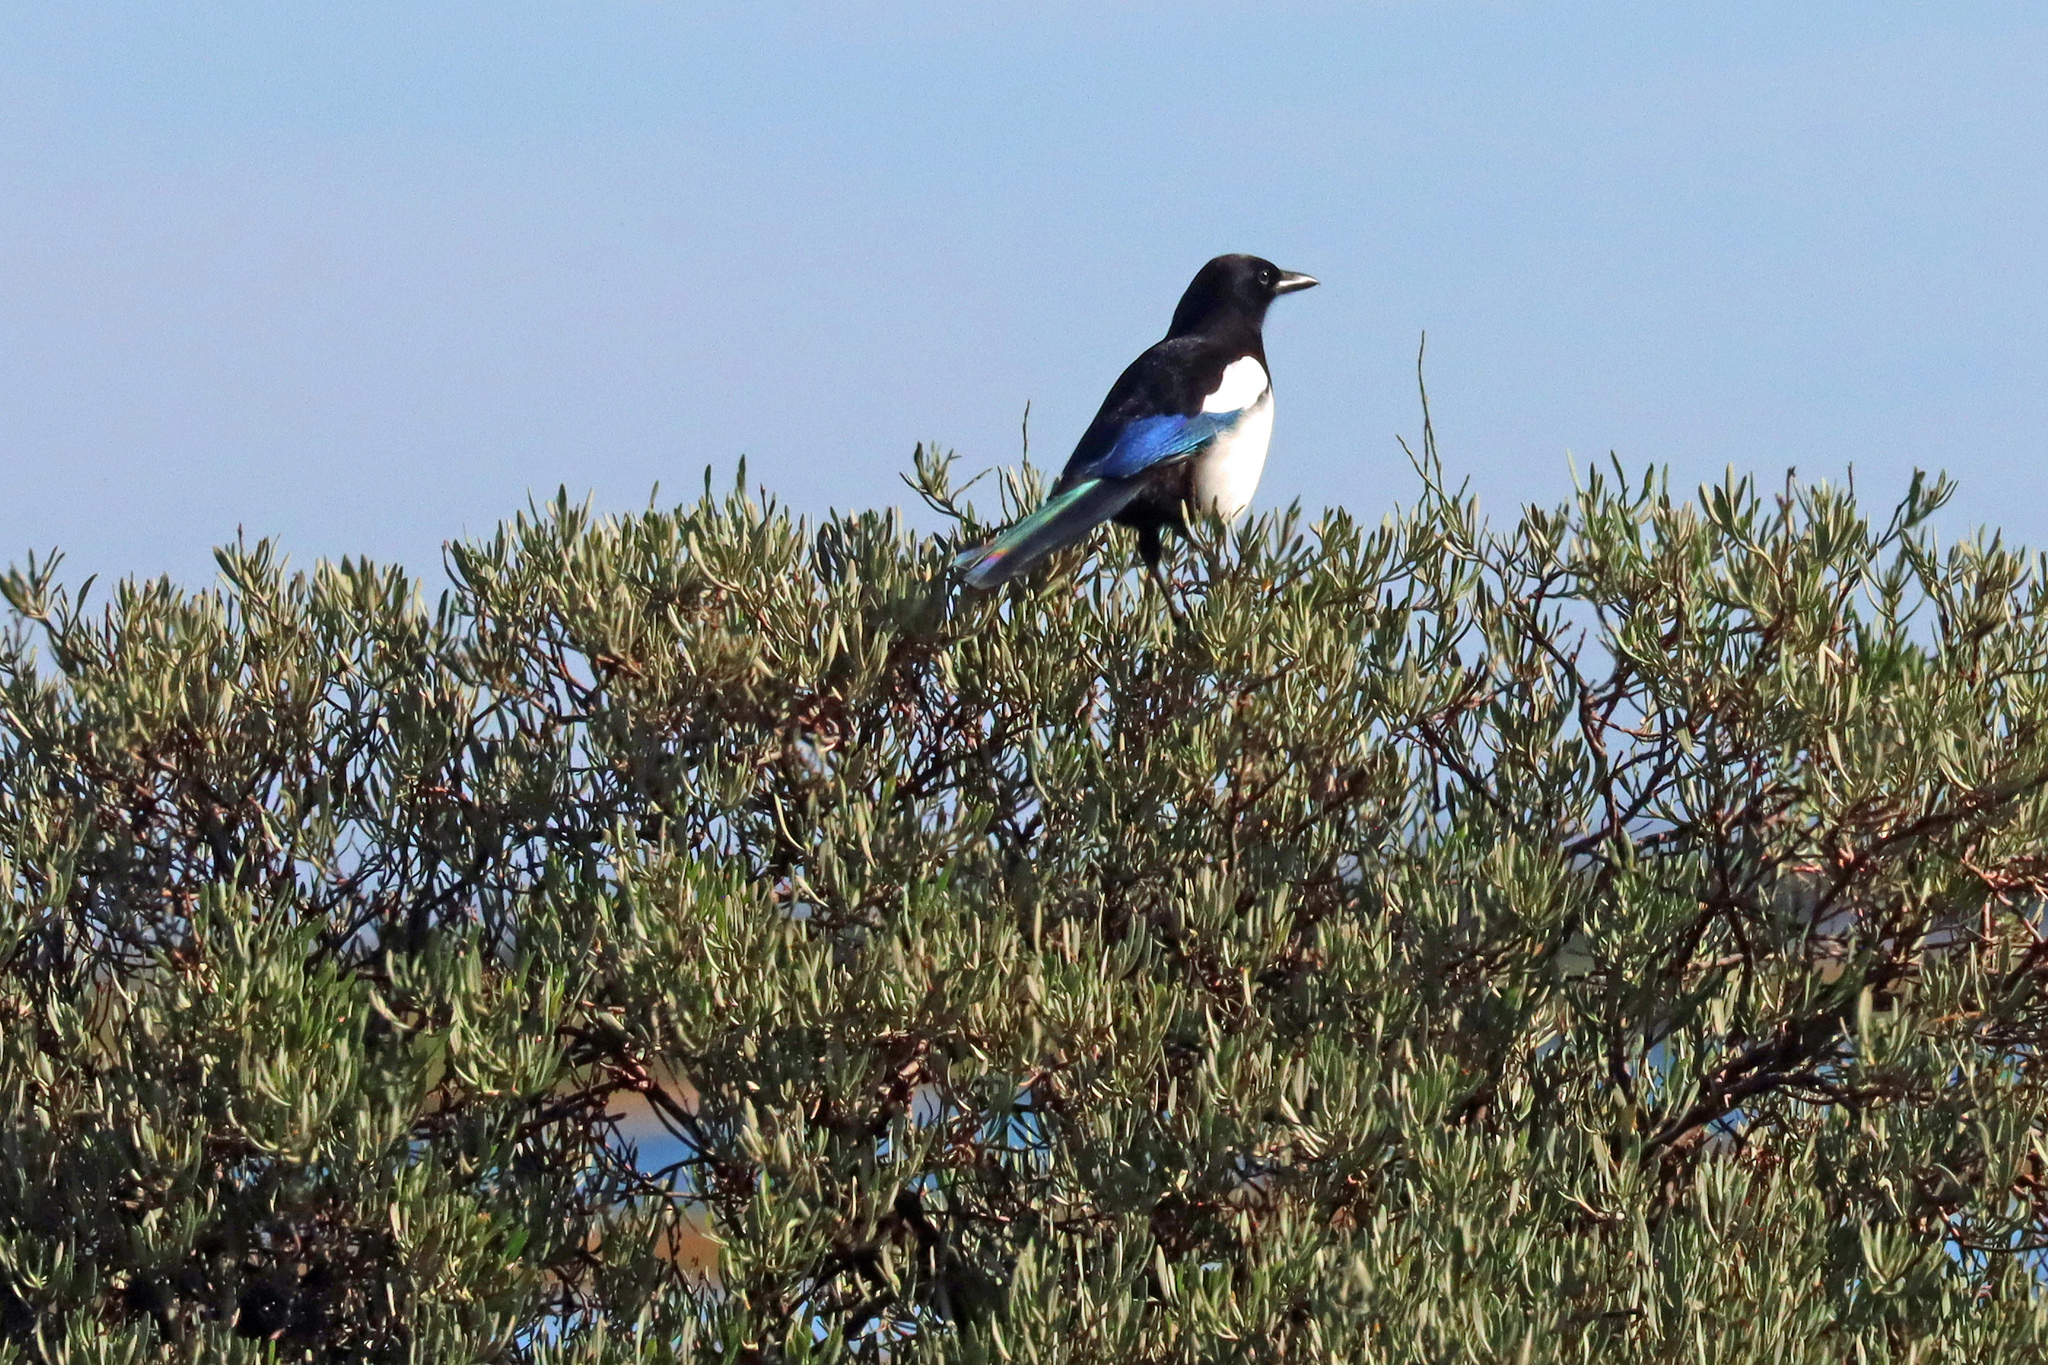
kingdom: Animalia
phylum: Chordata
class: Aves
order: Passeriformes
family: Corvidae
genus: Pica
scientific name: Pica pica
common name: Eurasian magpie
